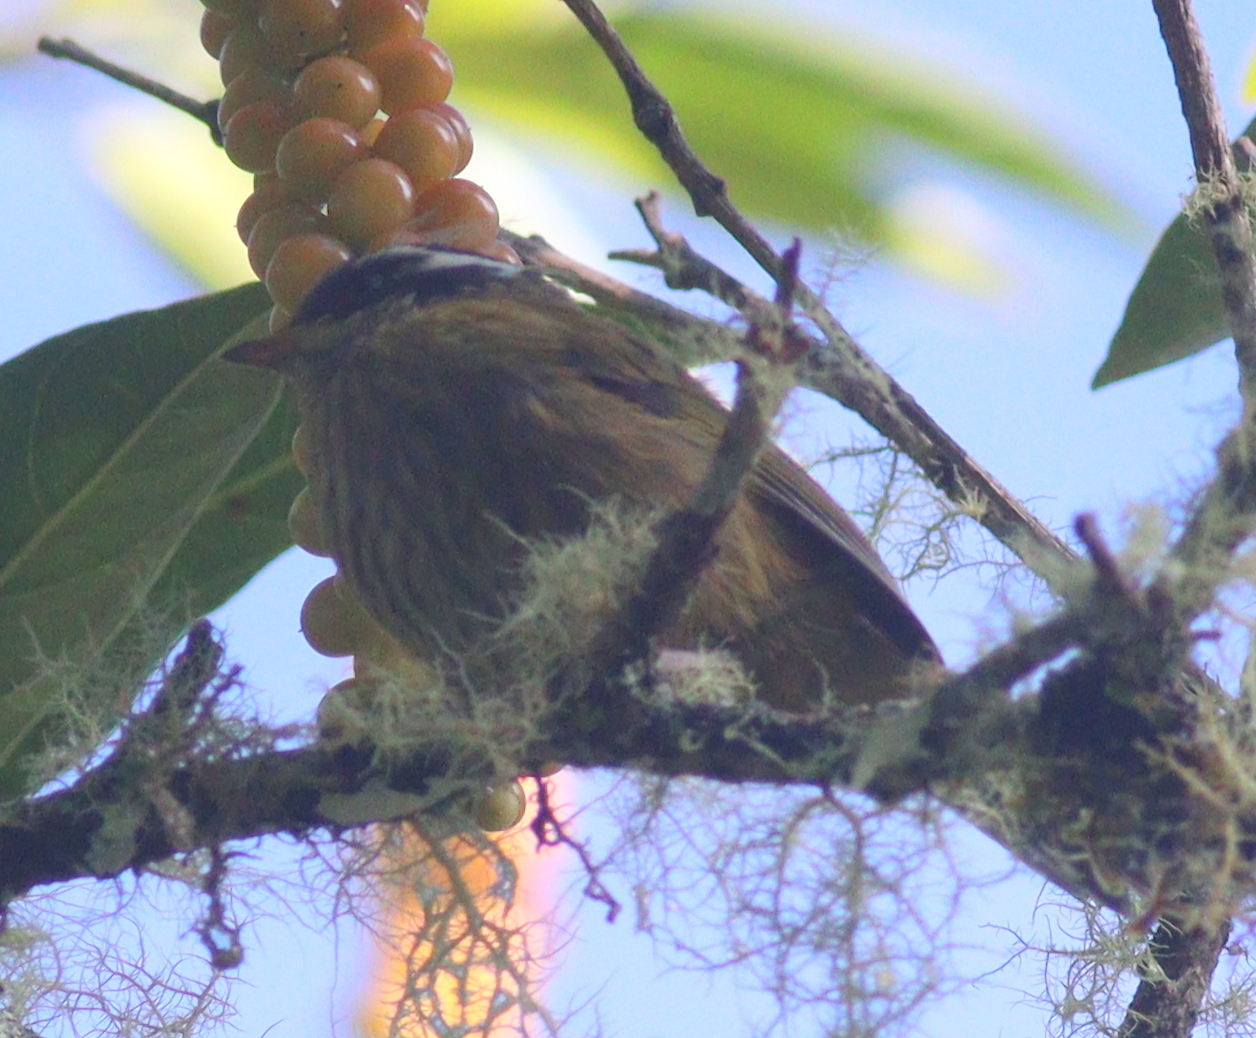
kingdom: Animalia
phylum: Chordata
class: Aves
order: Passeriformes
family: Passerellidae
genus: Chlorospingus
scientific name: Chlorospingus pileatus
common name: Sooty-capped bush-tanager
